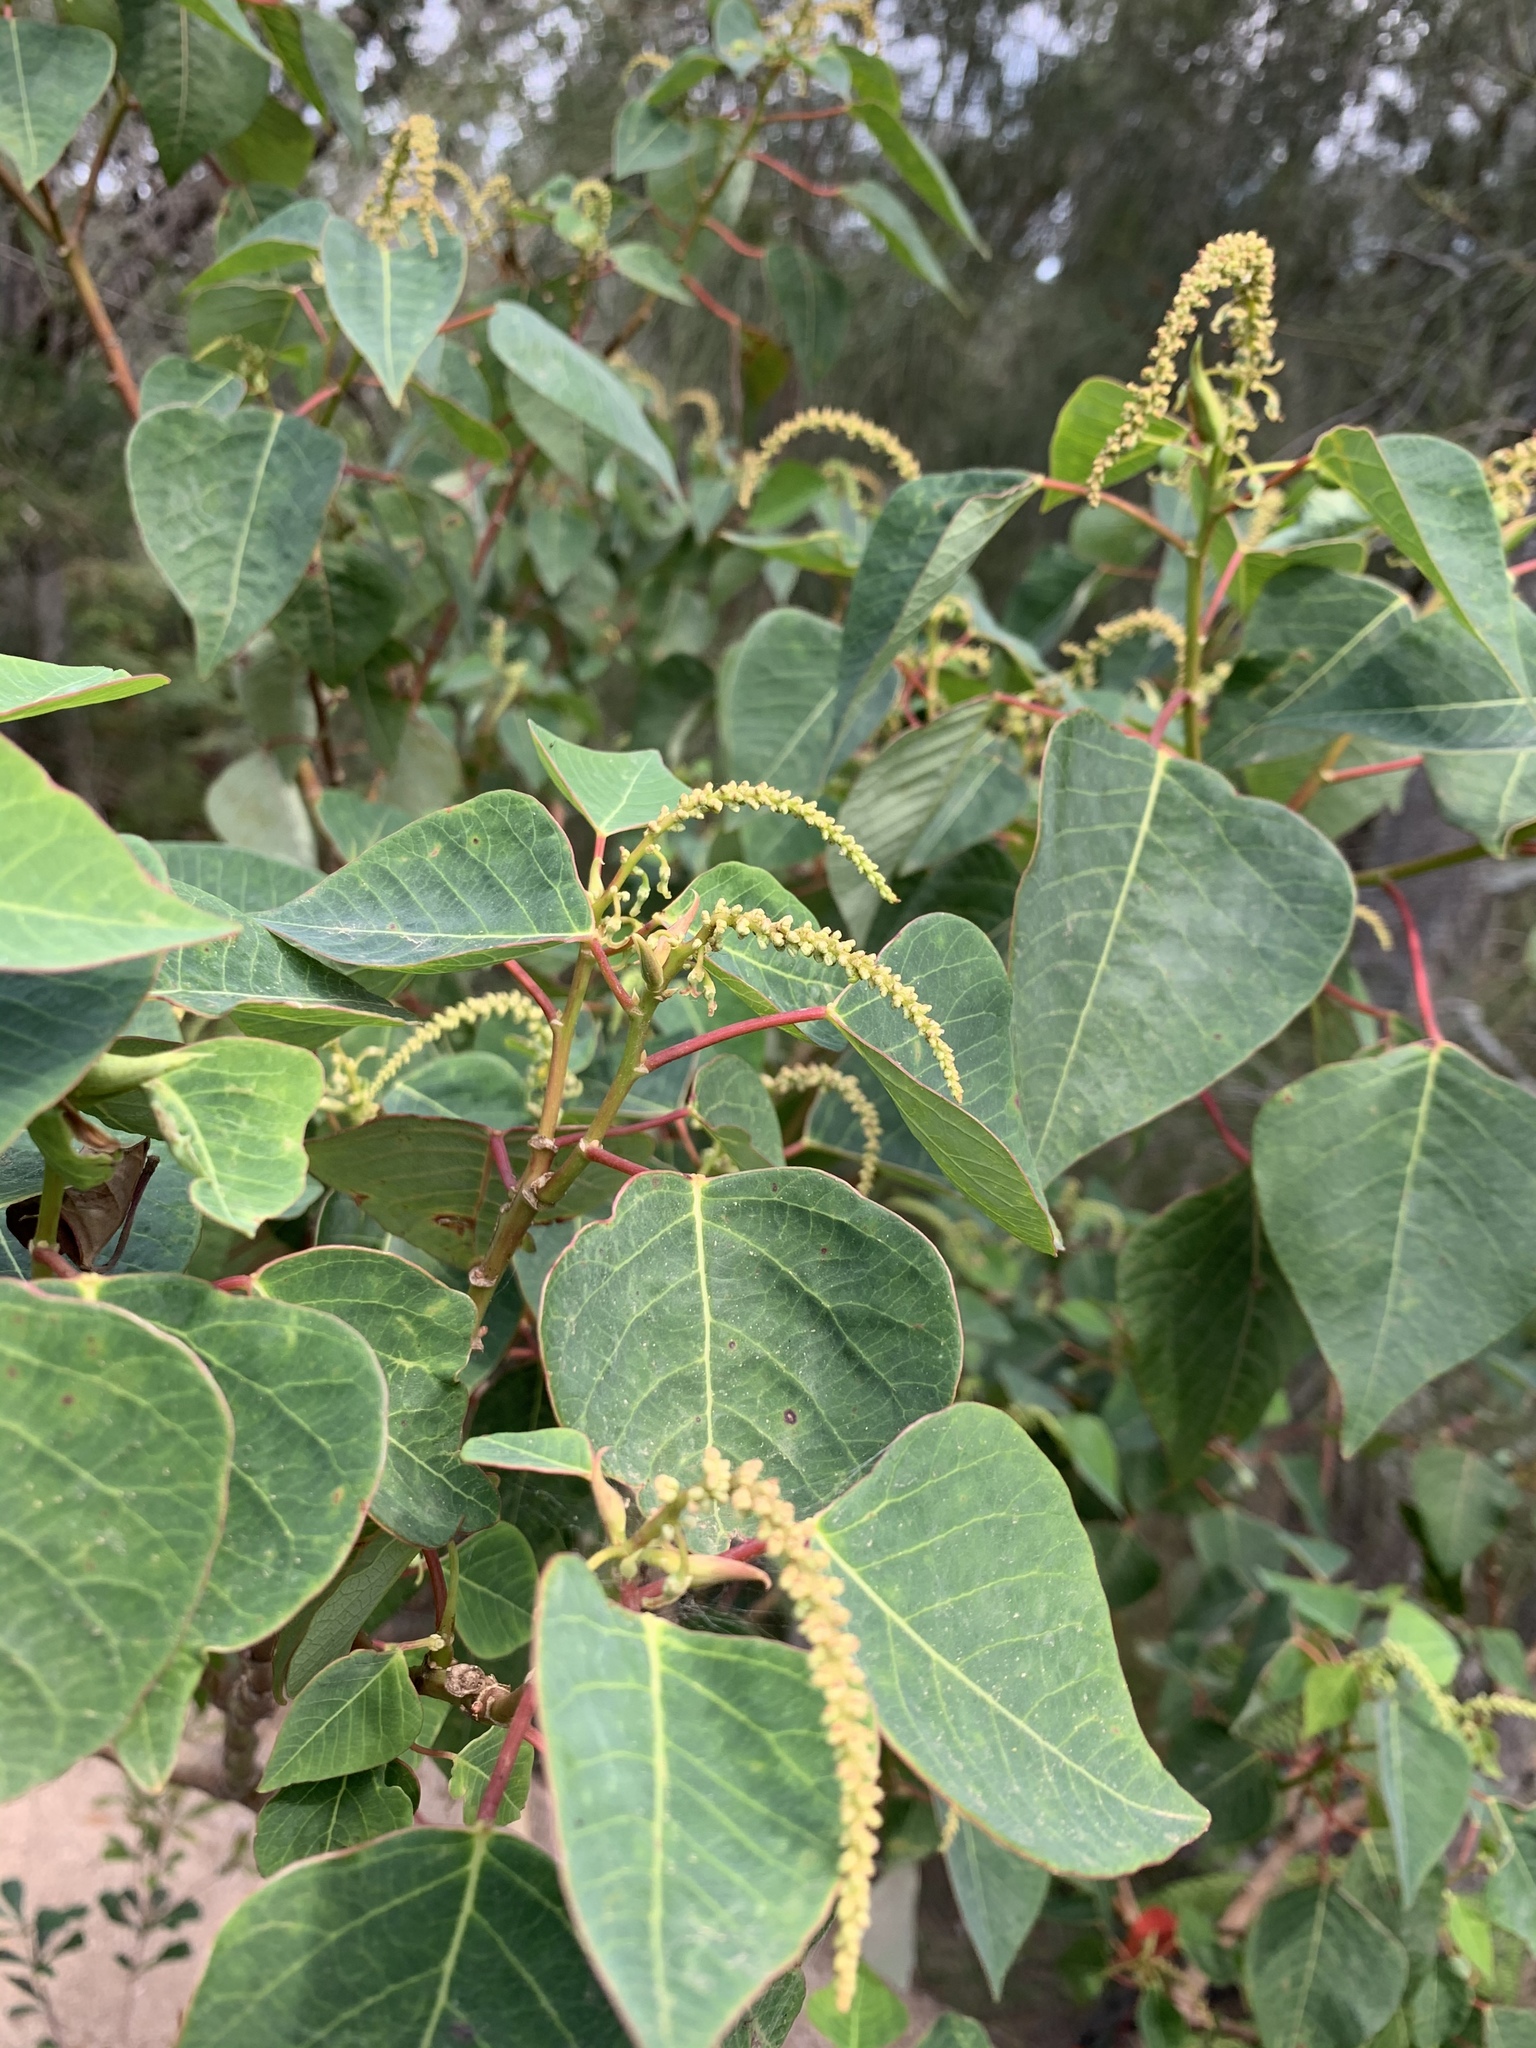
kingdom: Plantae
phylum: Tracheophyta
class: Magnoliopsida
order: Malpighiales
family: Euphorbiaceae
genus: Homalanthus
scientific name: Homalanthus populifolius
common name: Queensland poplar
